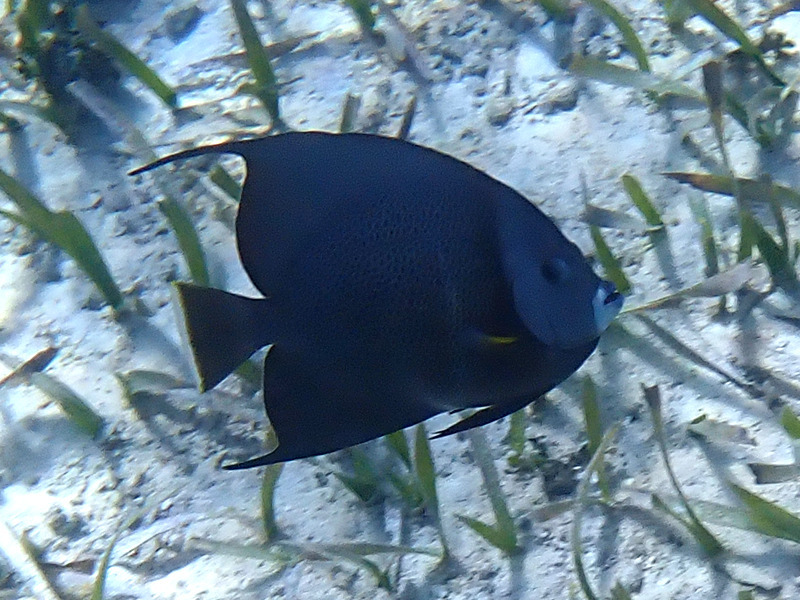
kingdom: Animalia
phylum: Chordata
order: Perciformes
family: Pomacanthidae
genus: Pomacanthus
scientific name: Pomacanthus arcuatus
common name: Gray angelfish
